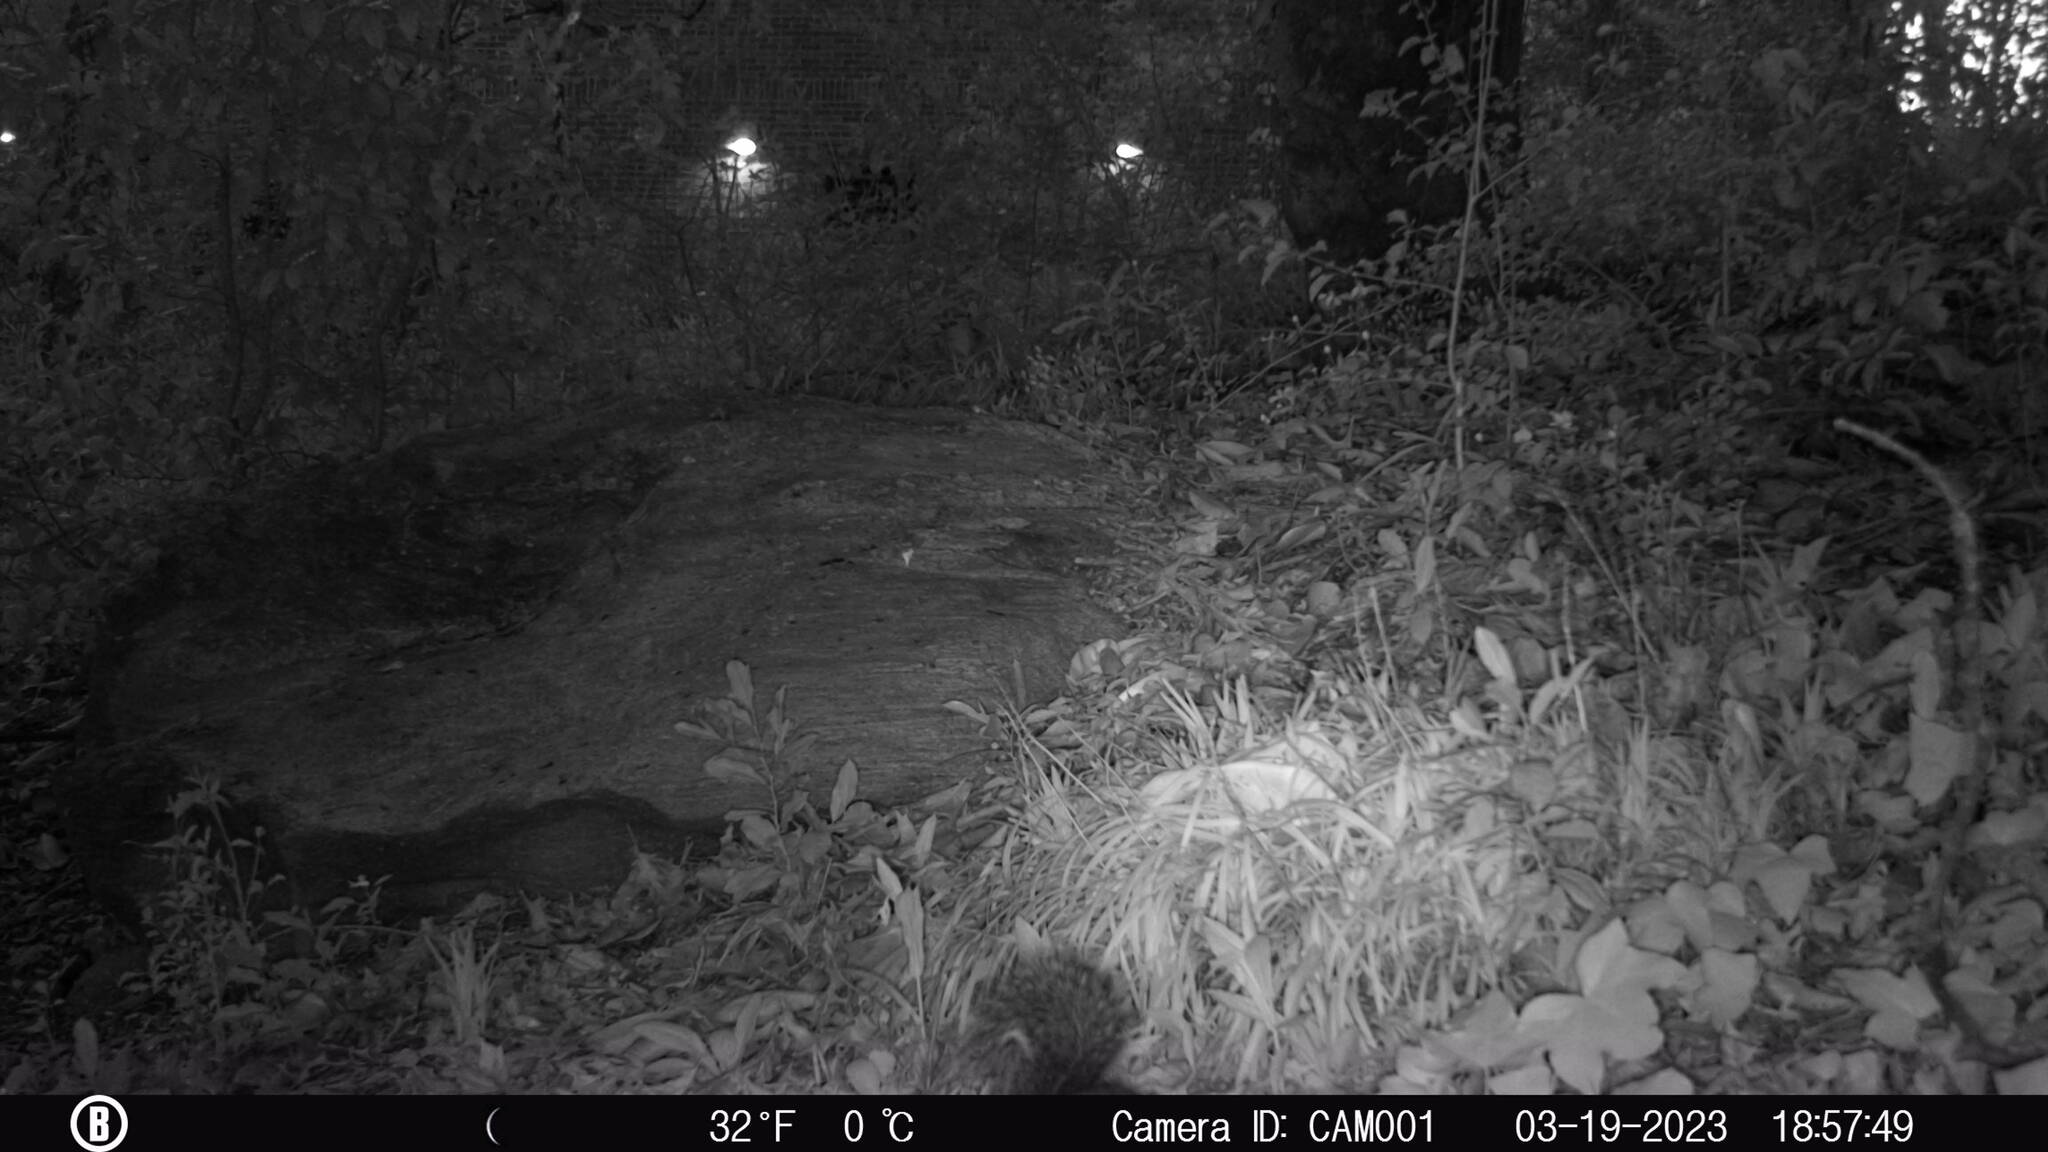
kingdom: Animalia
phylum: Chordata
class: Mammalia
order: Rodentia
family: Sciuridae
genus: Sciurus
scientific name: Sciurus carolinensis
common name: Eastern gray squirrel
